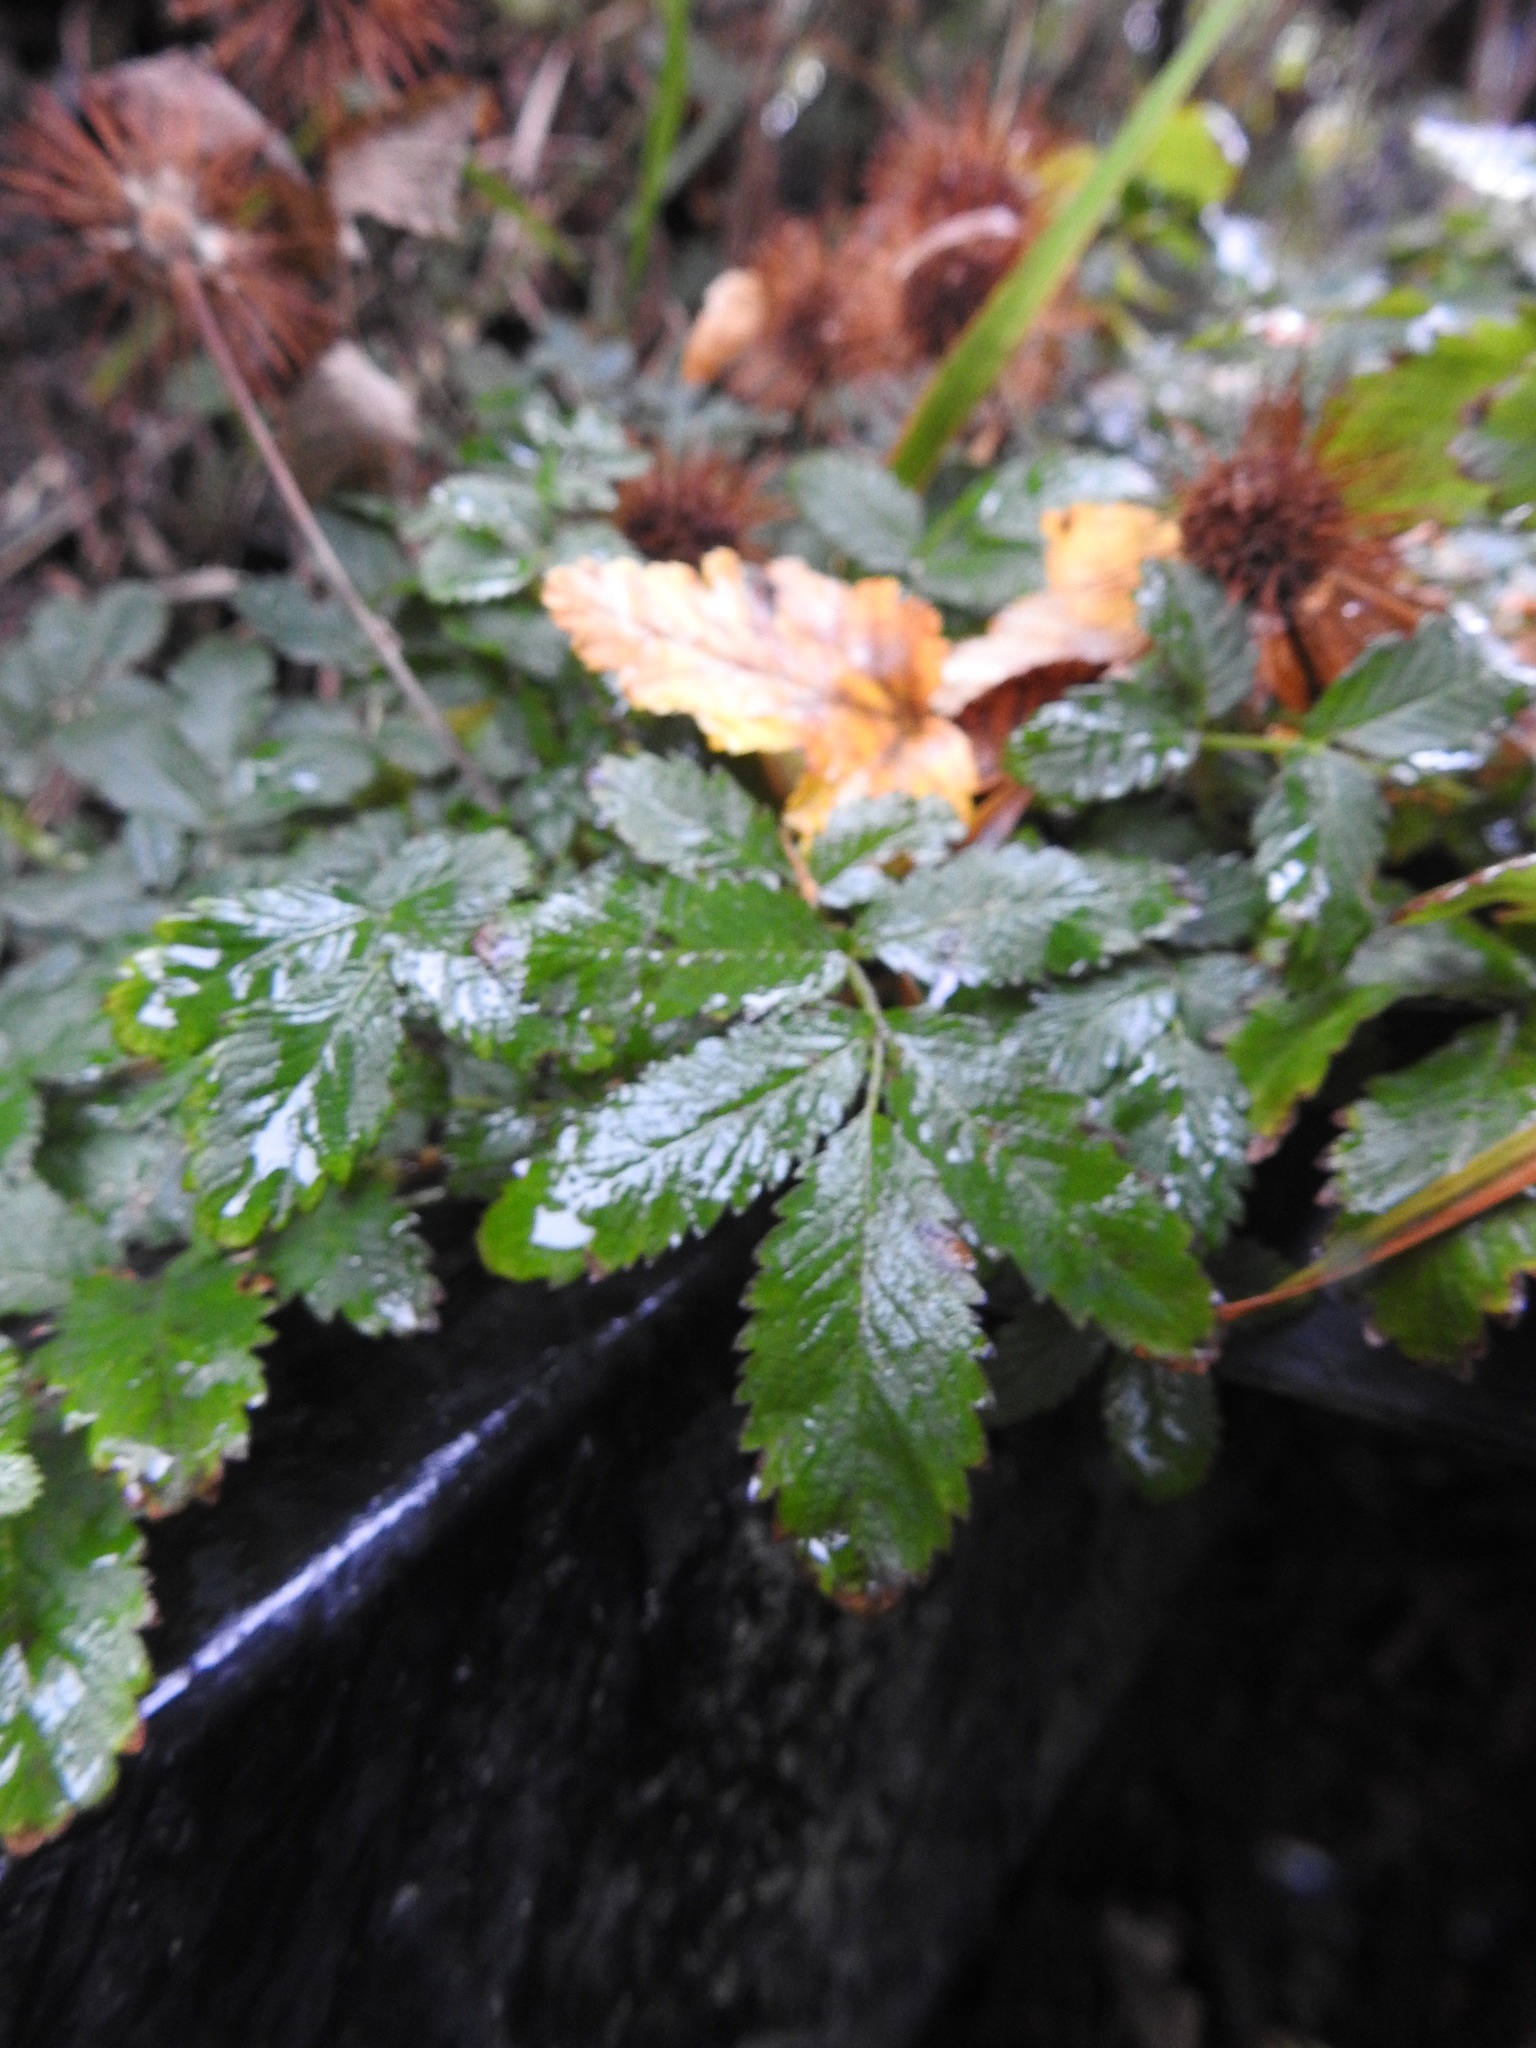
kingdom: Plantae
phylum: Tracheophyta
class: Magnoliopsida
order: Rosales
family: Rosaceae
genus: Acaena
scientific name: Acaena ovalifolia
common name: Two-spined acaena
